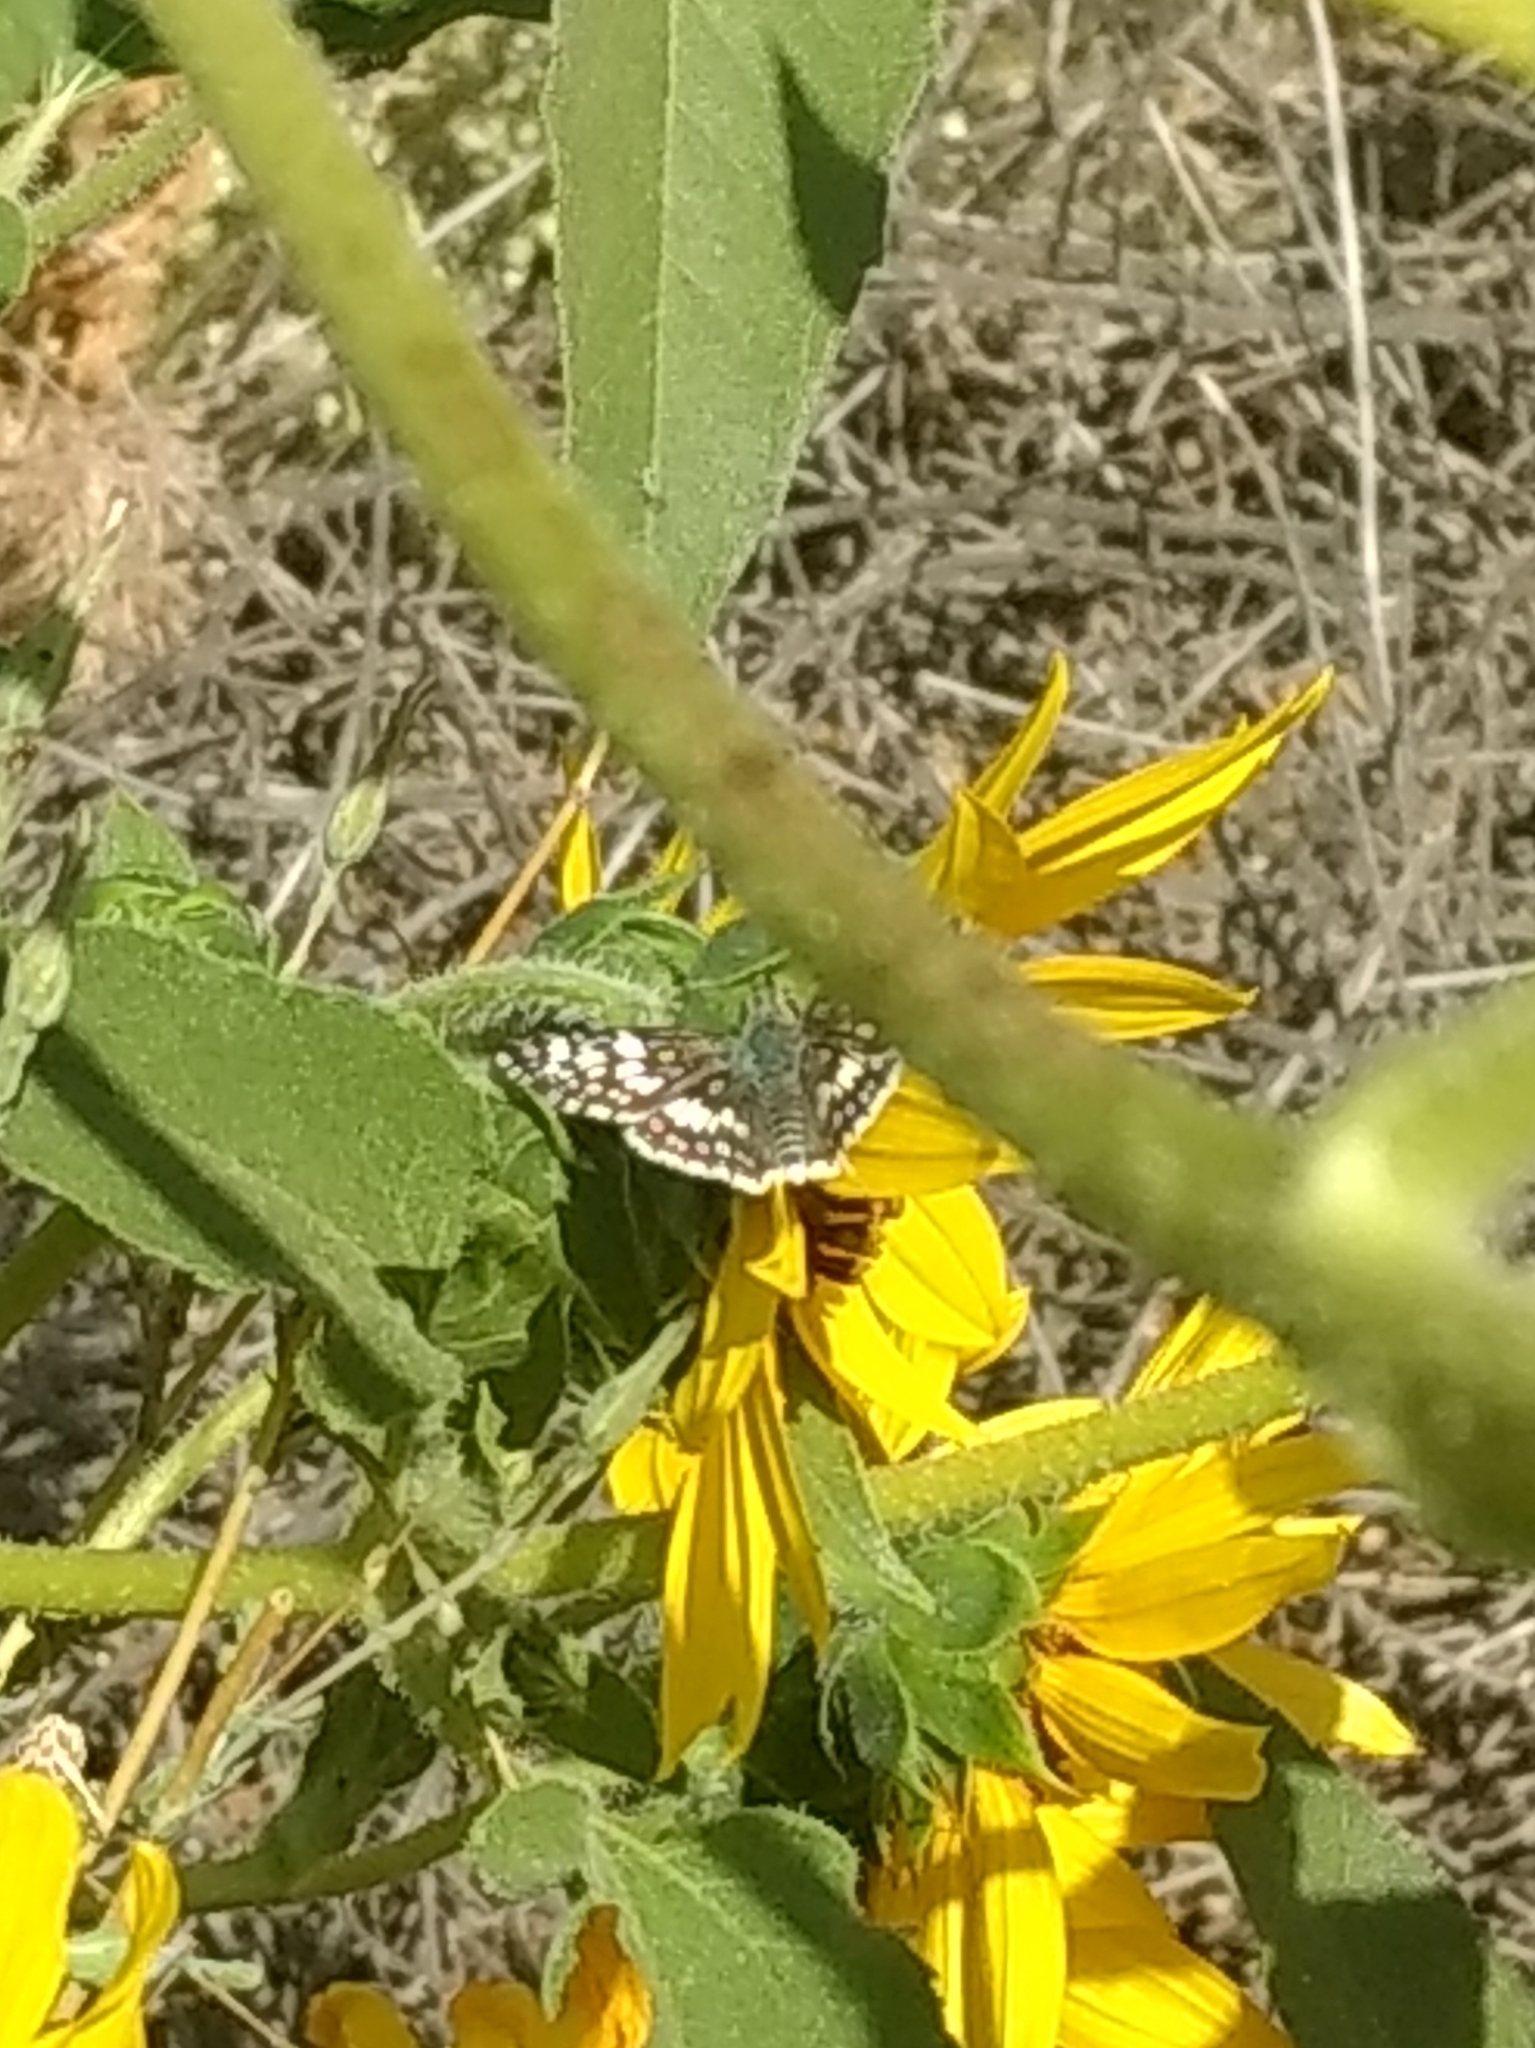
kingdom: Animalia
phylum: Arthropoda
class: Insecta
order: Lepidoptera
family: Hesperiidae
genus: Burnsius
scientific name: Burnsius albezens
